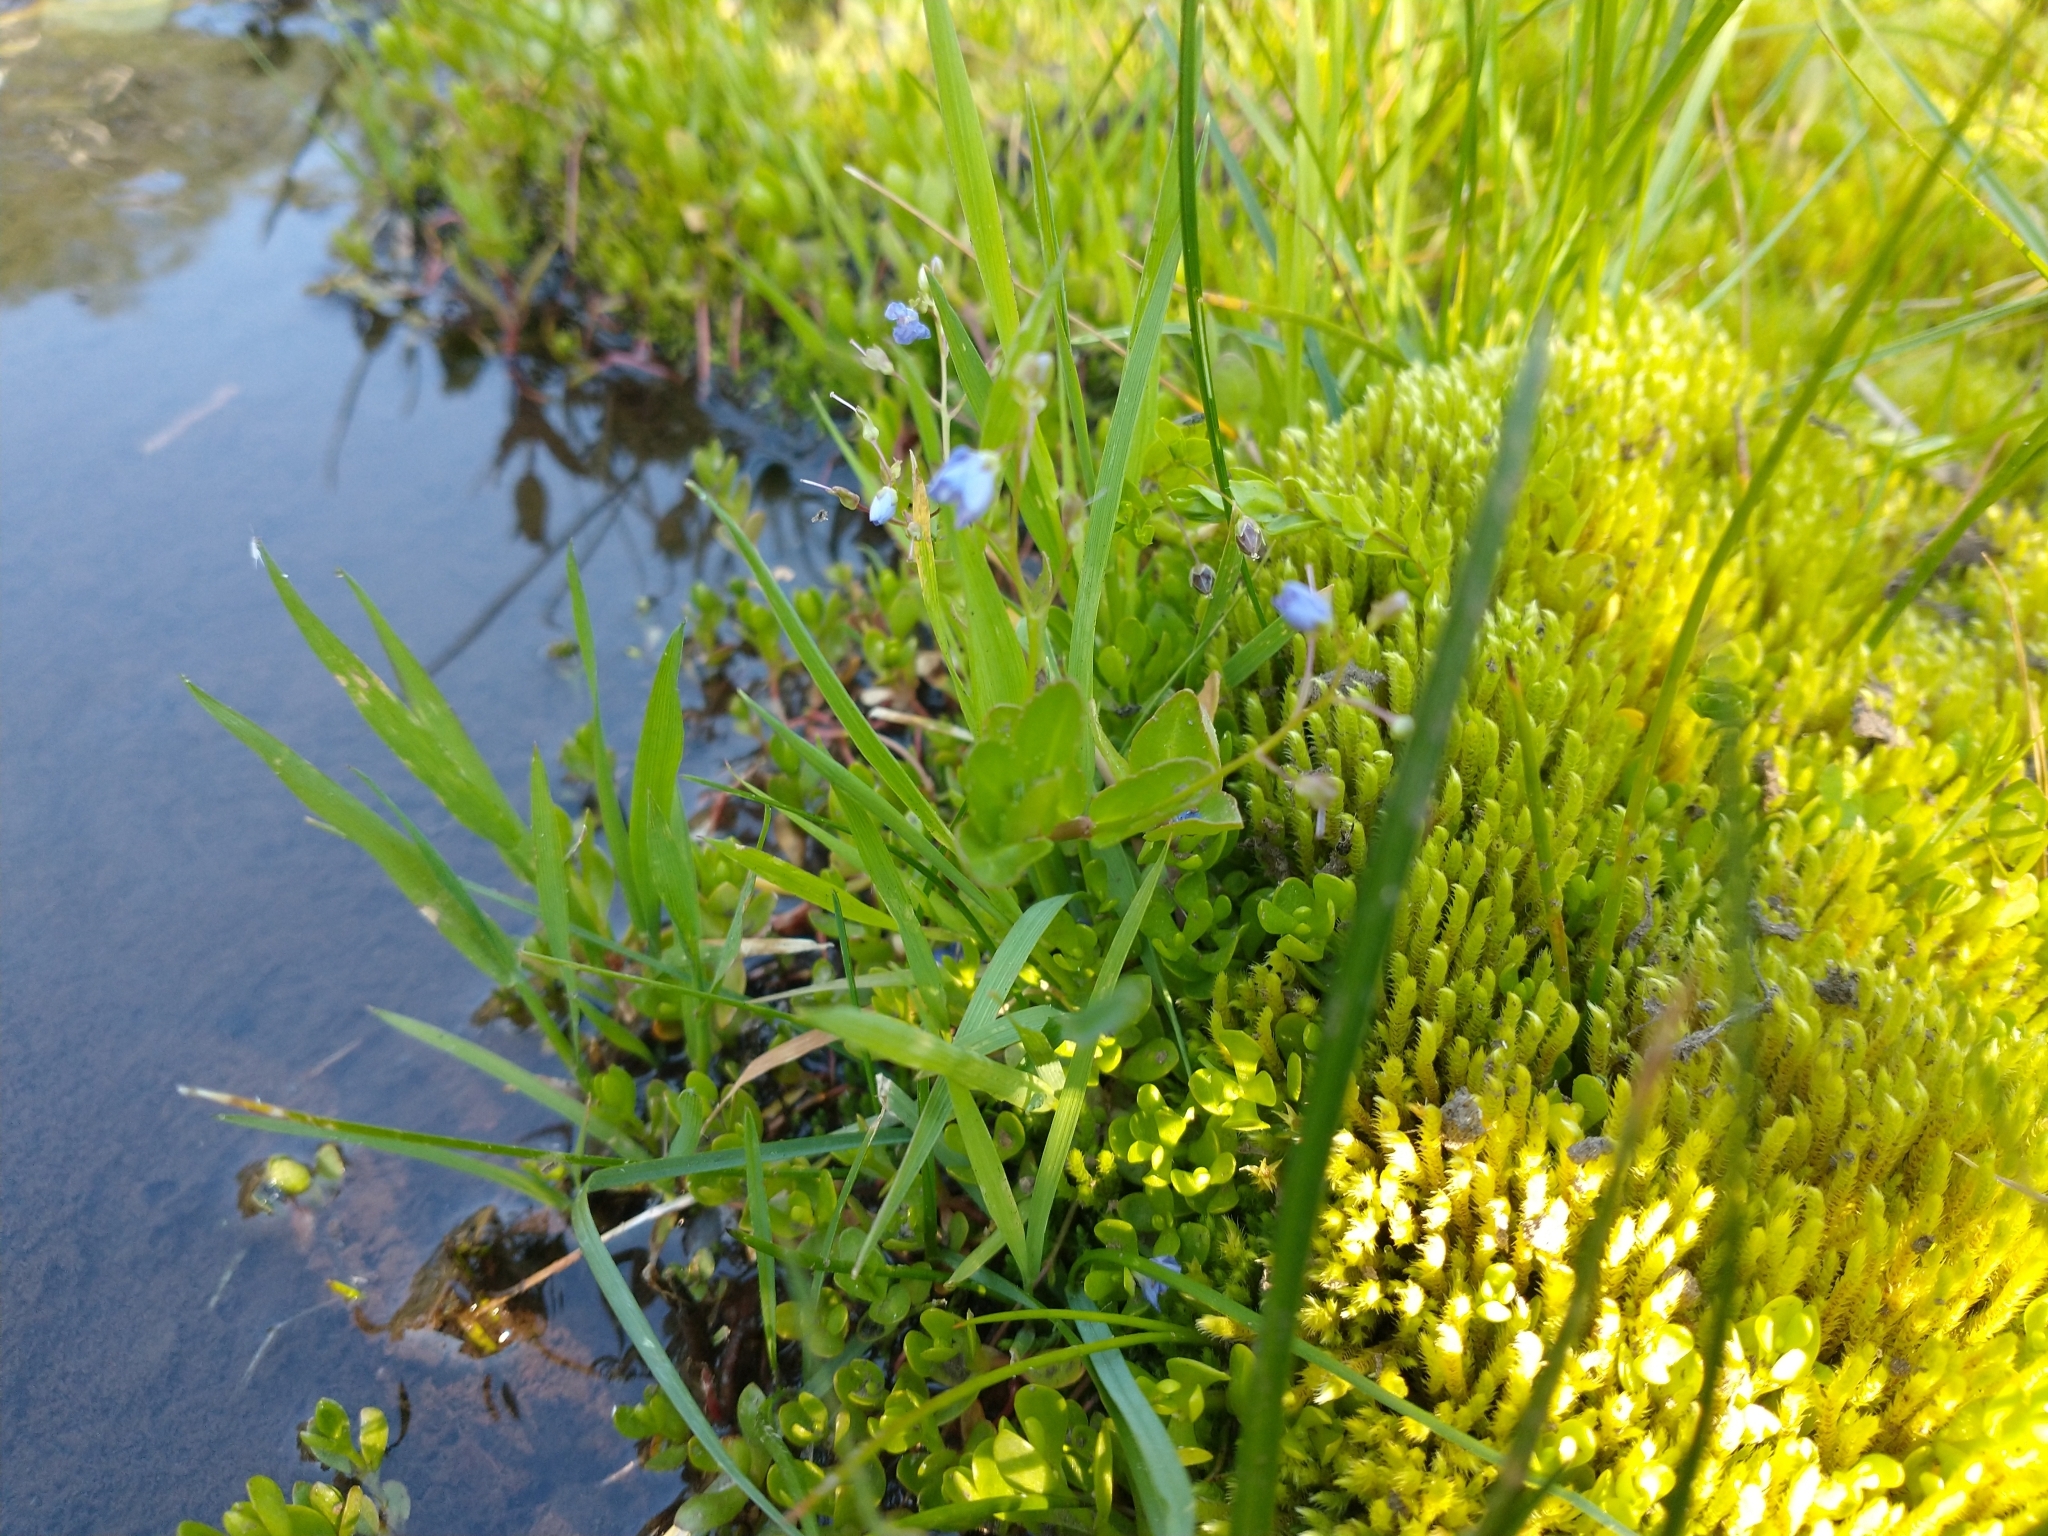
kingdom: Plantae
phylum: Tracheophyta
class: Magnoliopsida
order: Lamiales
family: Plantaginaceae
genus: Veronica
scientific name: Veronica americana
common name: American brooklime
